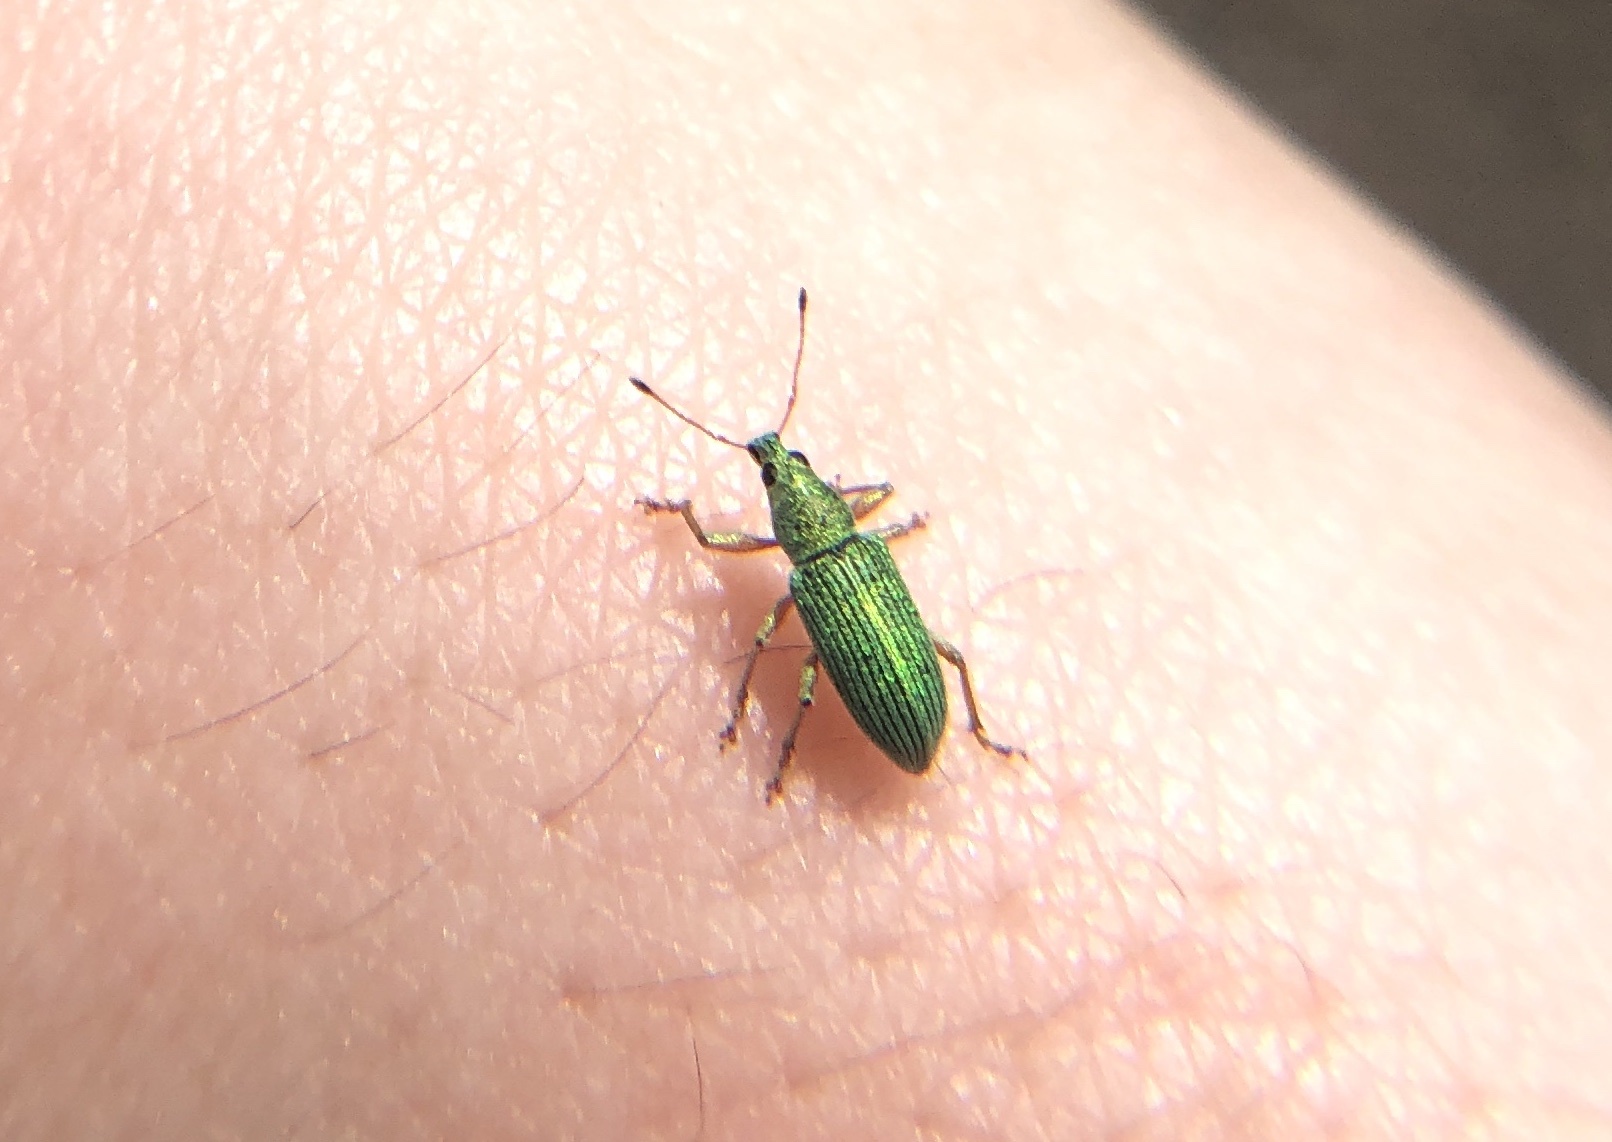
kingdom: Animalia
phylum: Arthropoda
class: Insecta
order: Coleoptera
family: Curculionidae
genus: Polydrusus
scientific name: Polydrusus formosus
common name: Weevil
